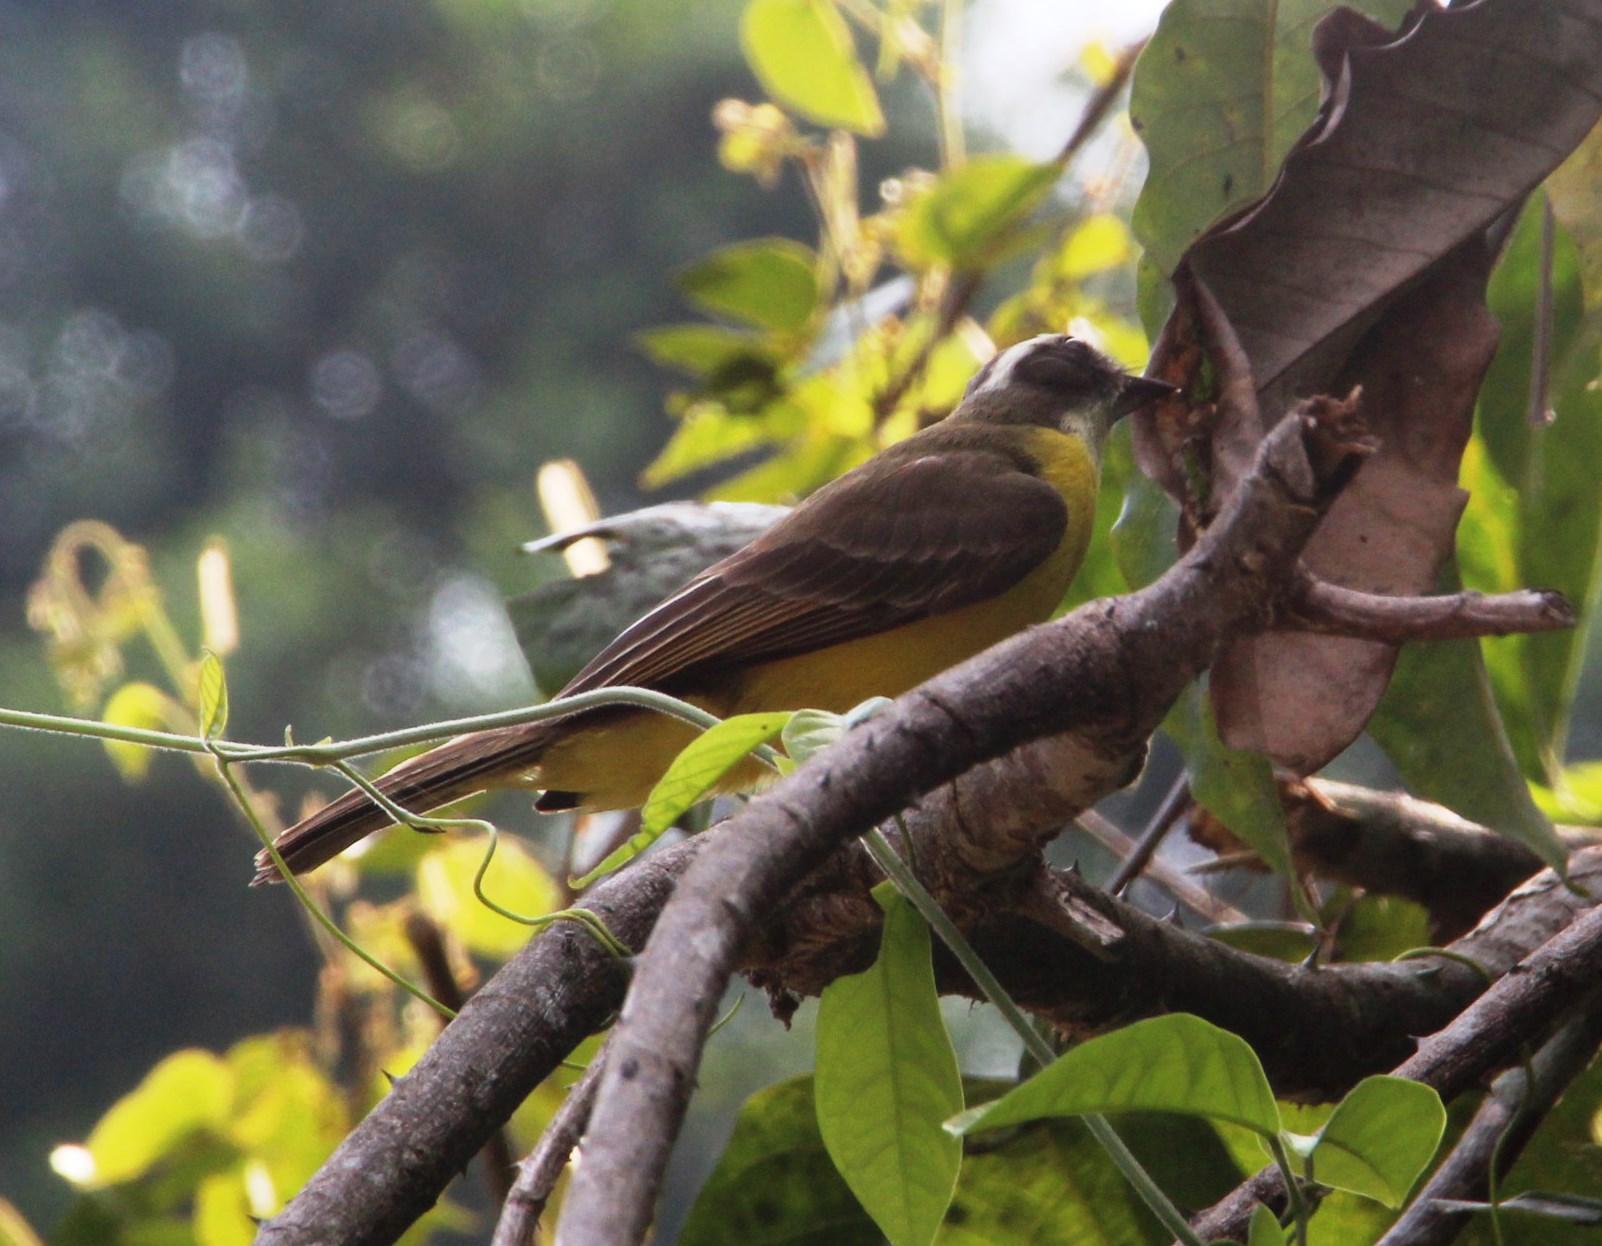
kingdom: Animalia
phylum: Chordata
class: Aves
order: Passeriformes
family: Tyrannidae
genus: Myiozetetes
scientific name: Myiozetetes similis
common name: Social flycatcher
